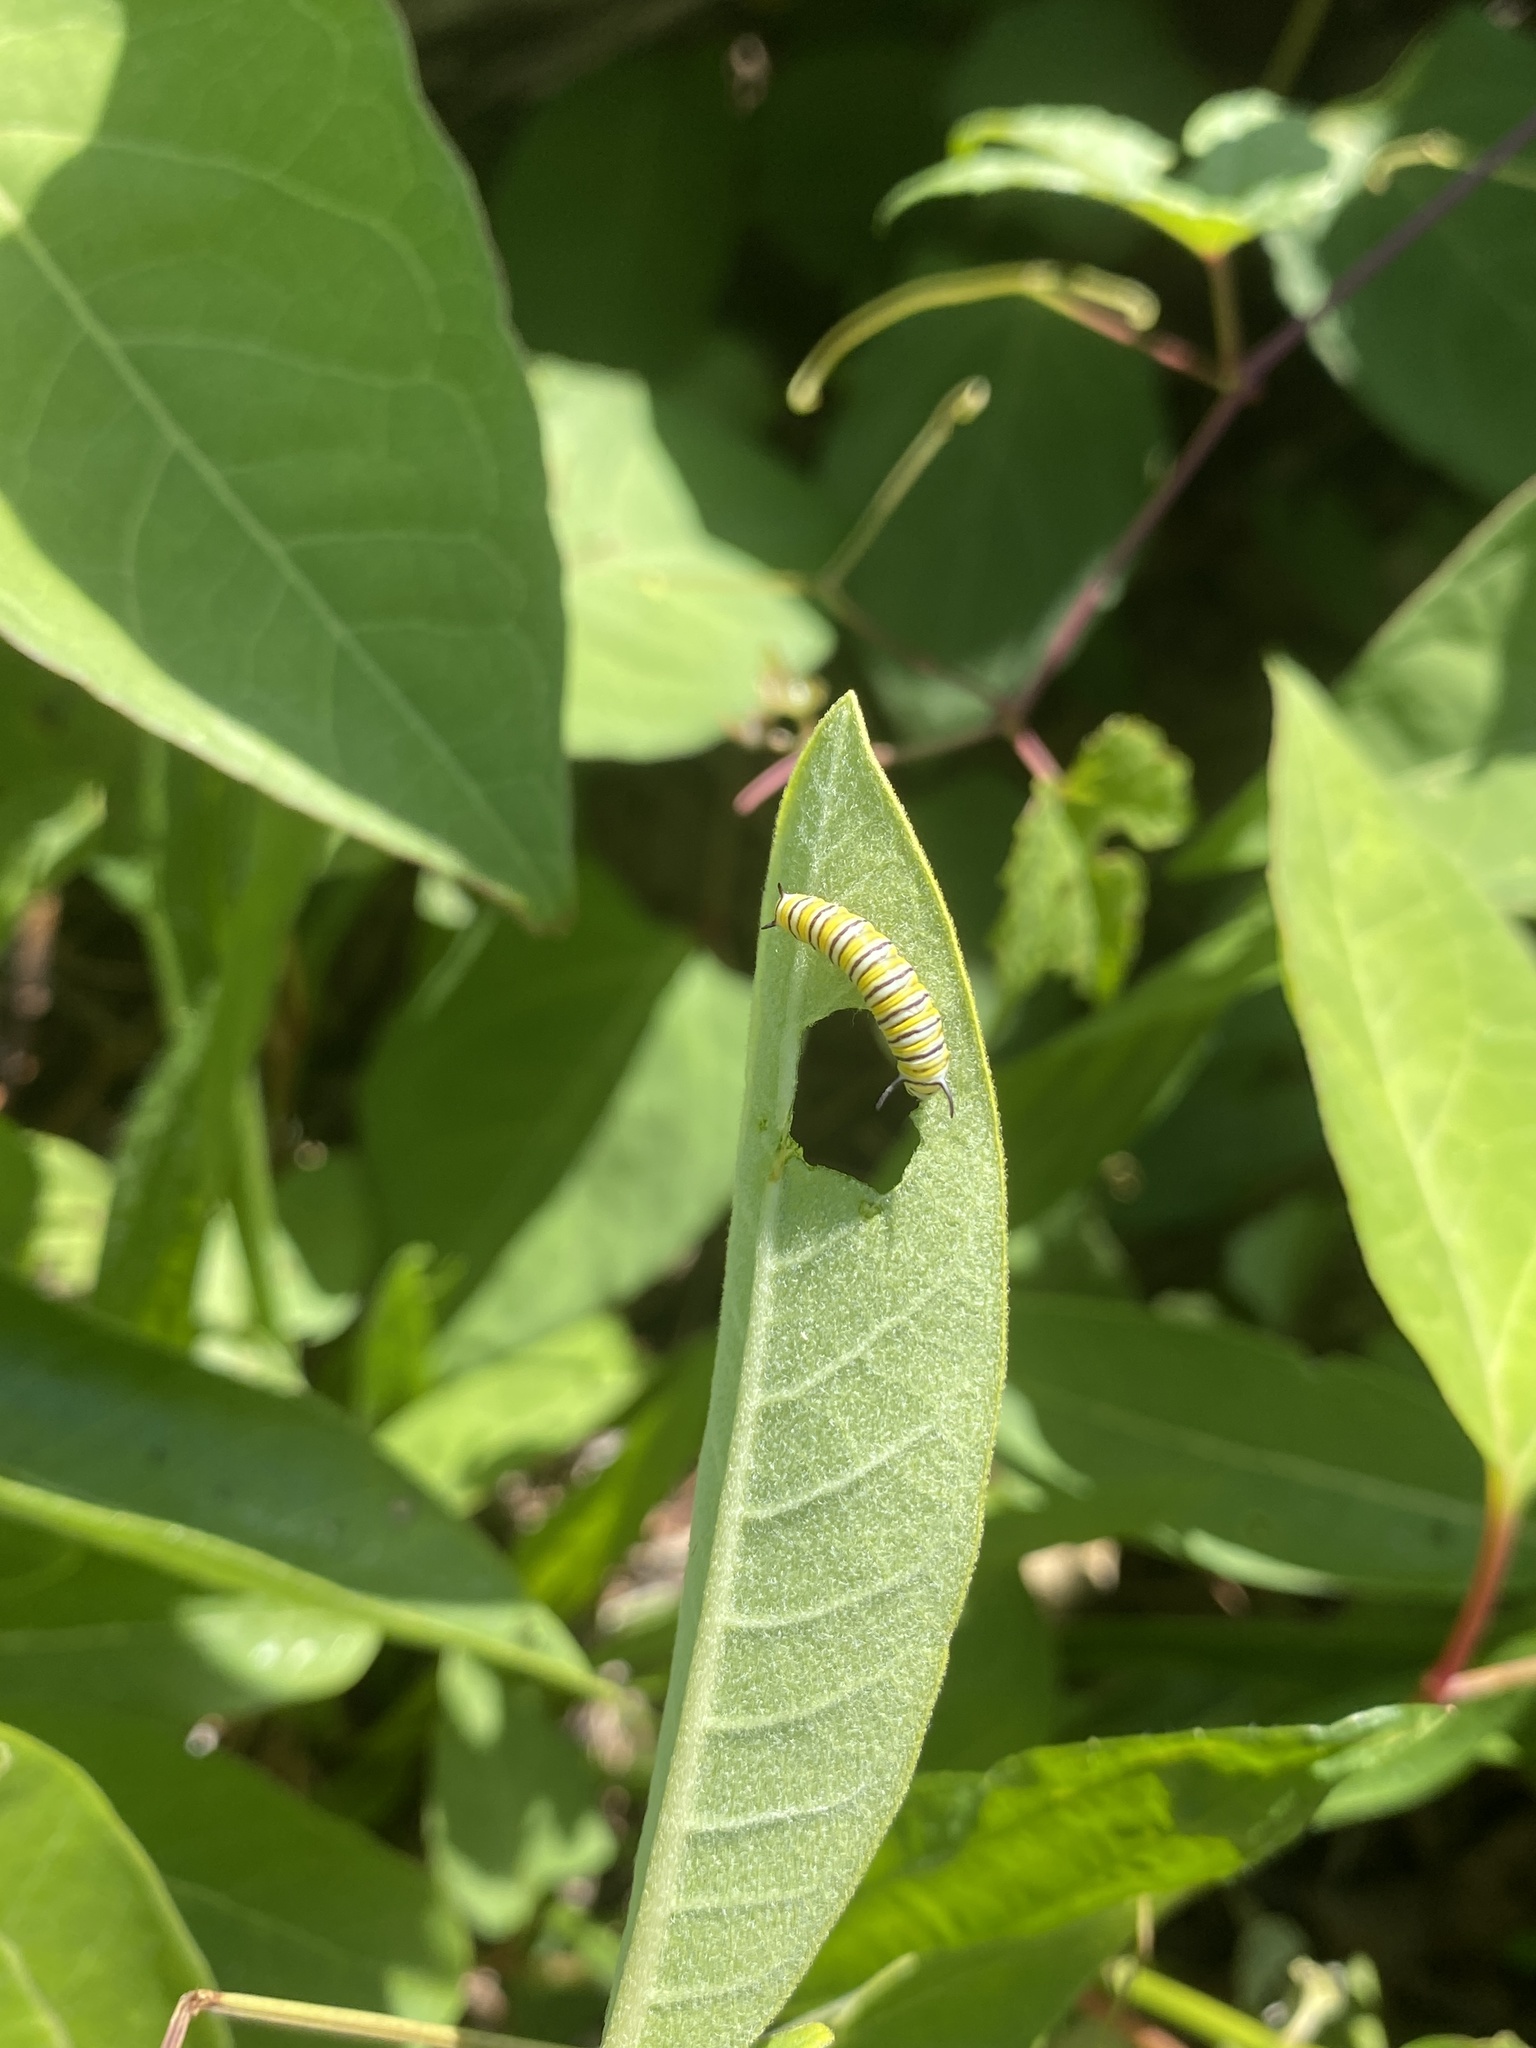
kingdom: Animalia
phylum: Arthropoda
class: Insecta
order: Lepidoptera
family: Nymphalidae
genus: Danaus
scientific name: Danaus plexippus
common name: Monarch
